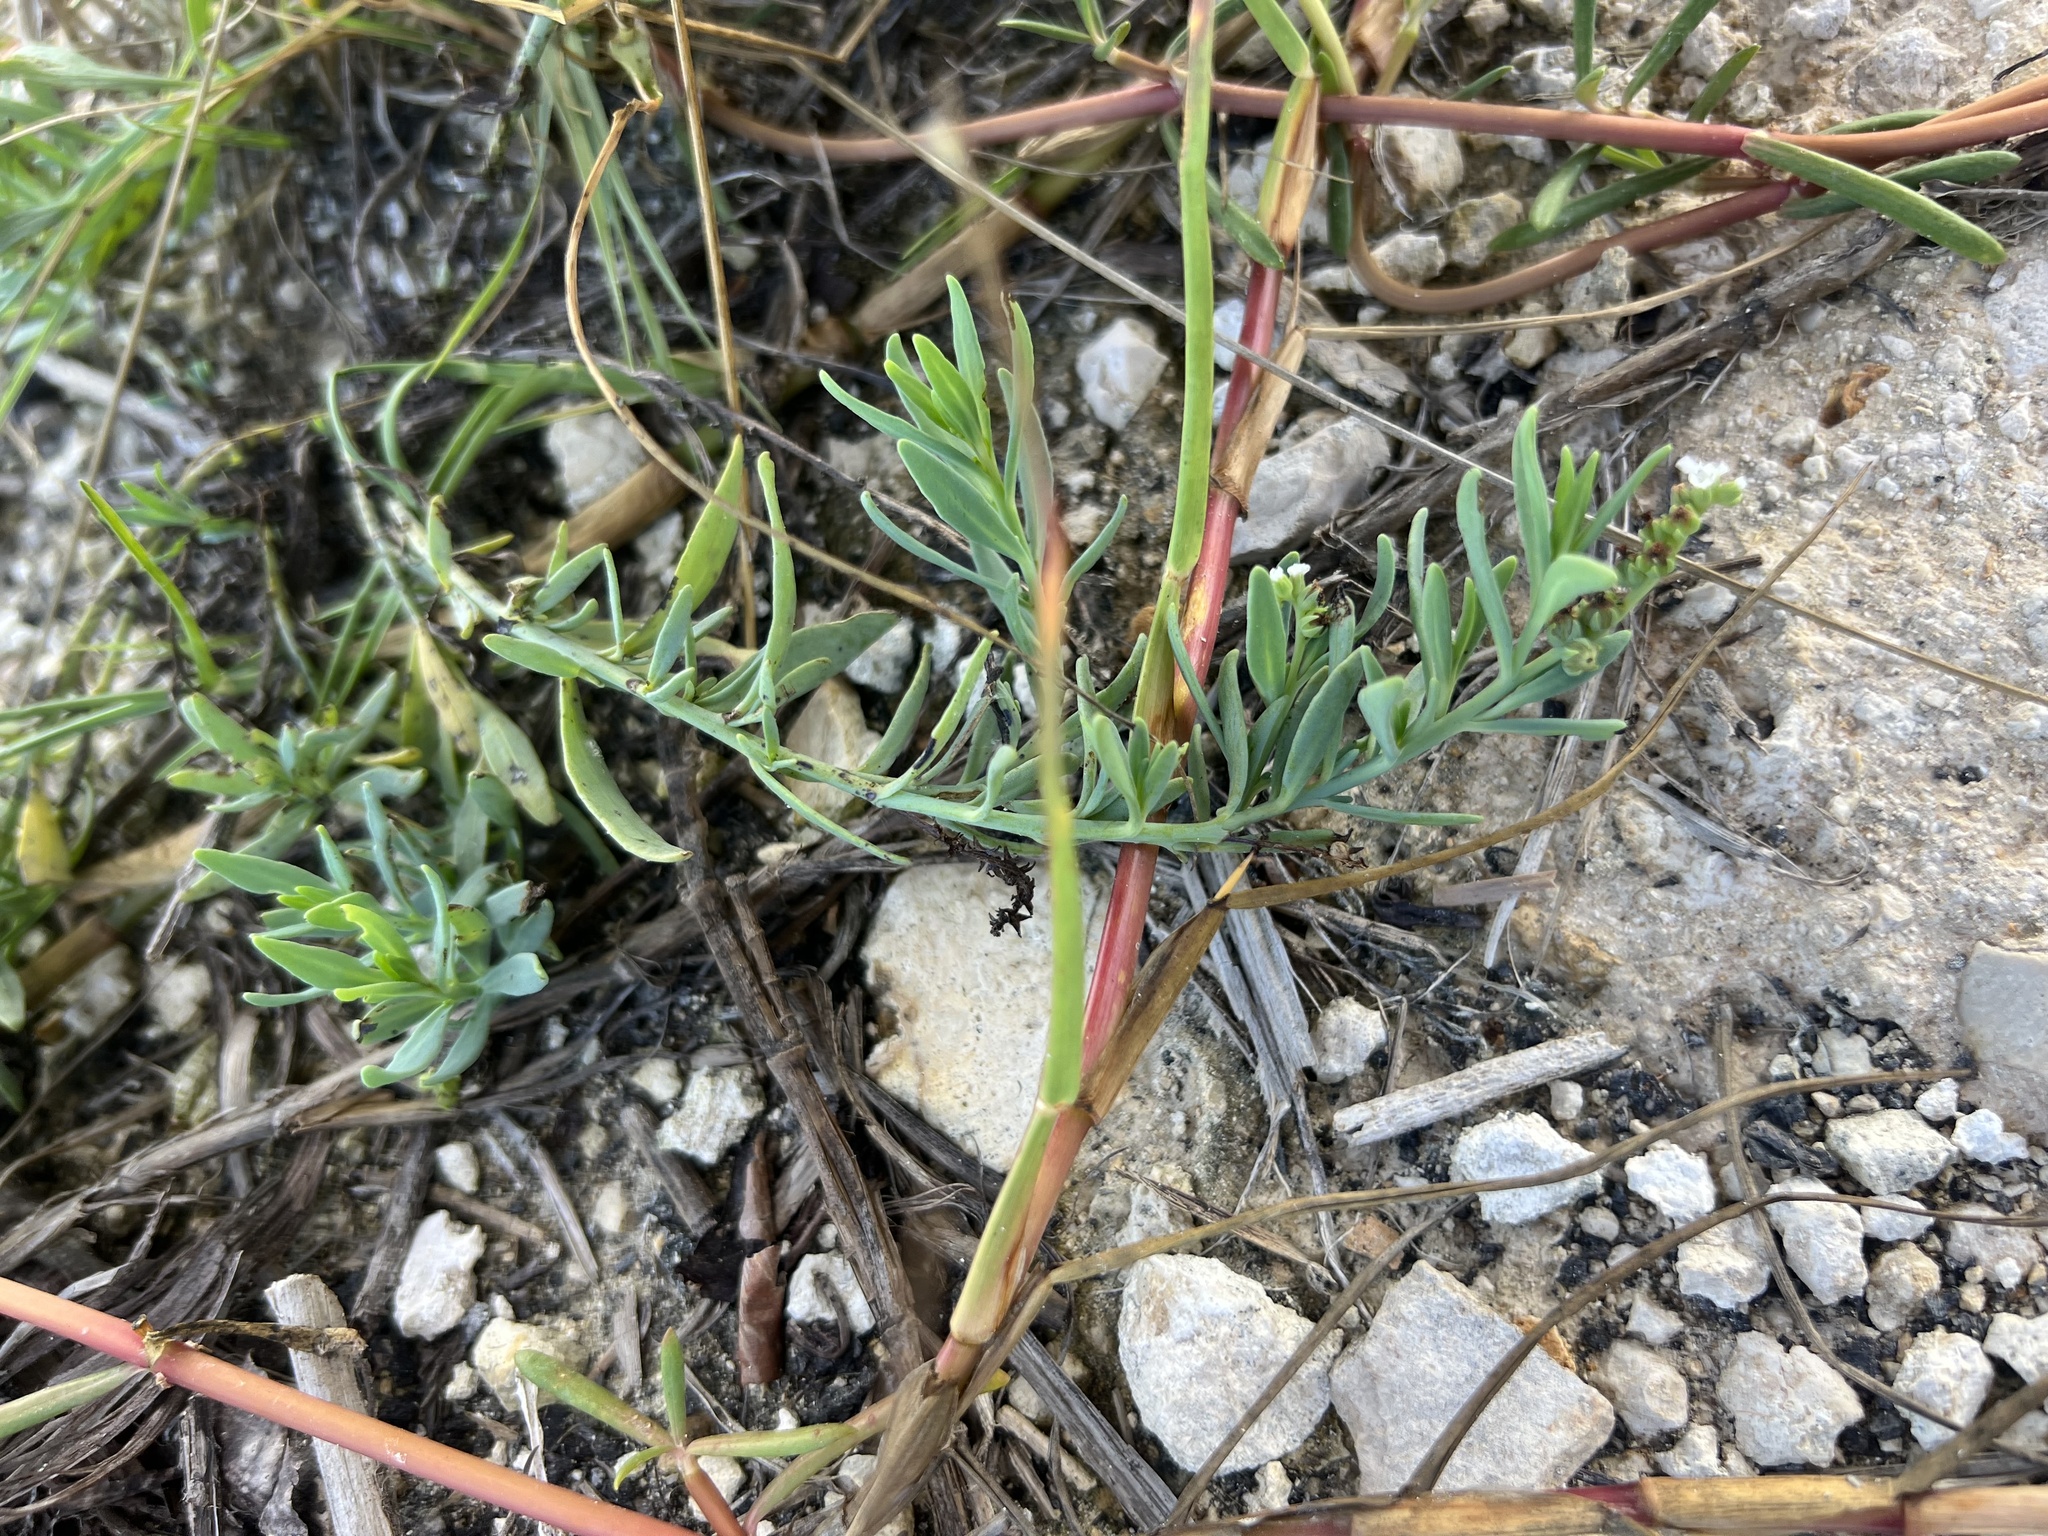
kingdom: Plantae
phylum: Tracheophyta
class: Magnoliopsida
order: Boraginales
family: Heliotropiaceae
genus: Heliotropium
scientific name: Heliotropium curassavicum
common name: Seaside heliotrope
